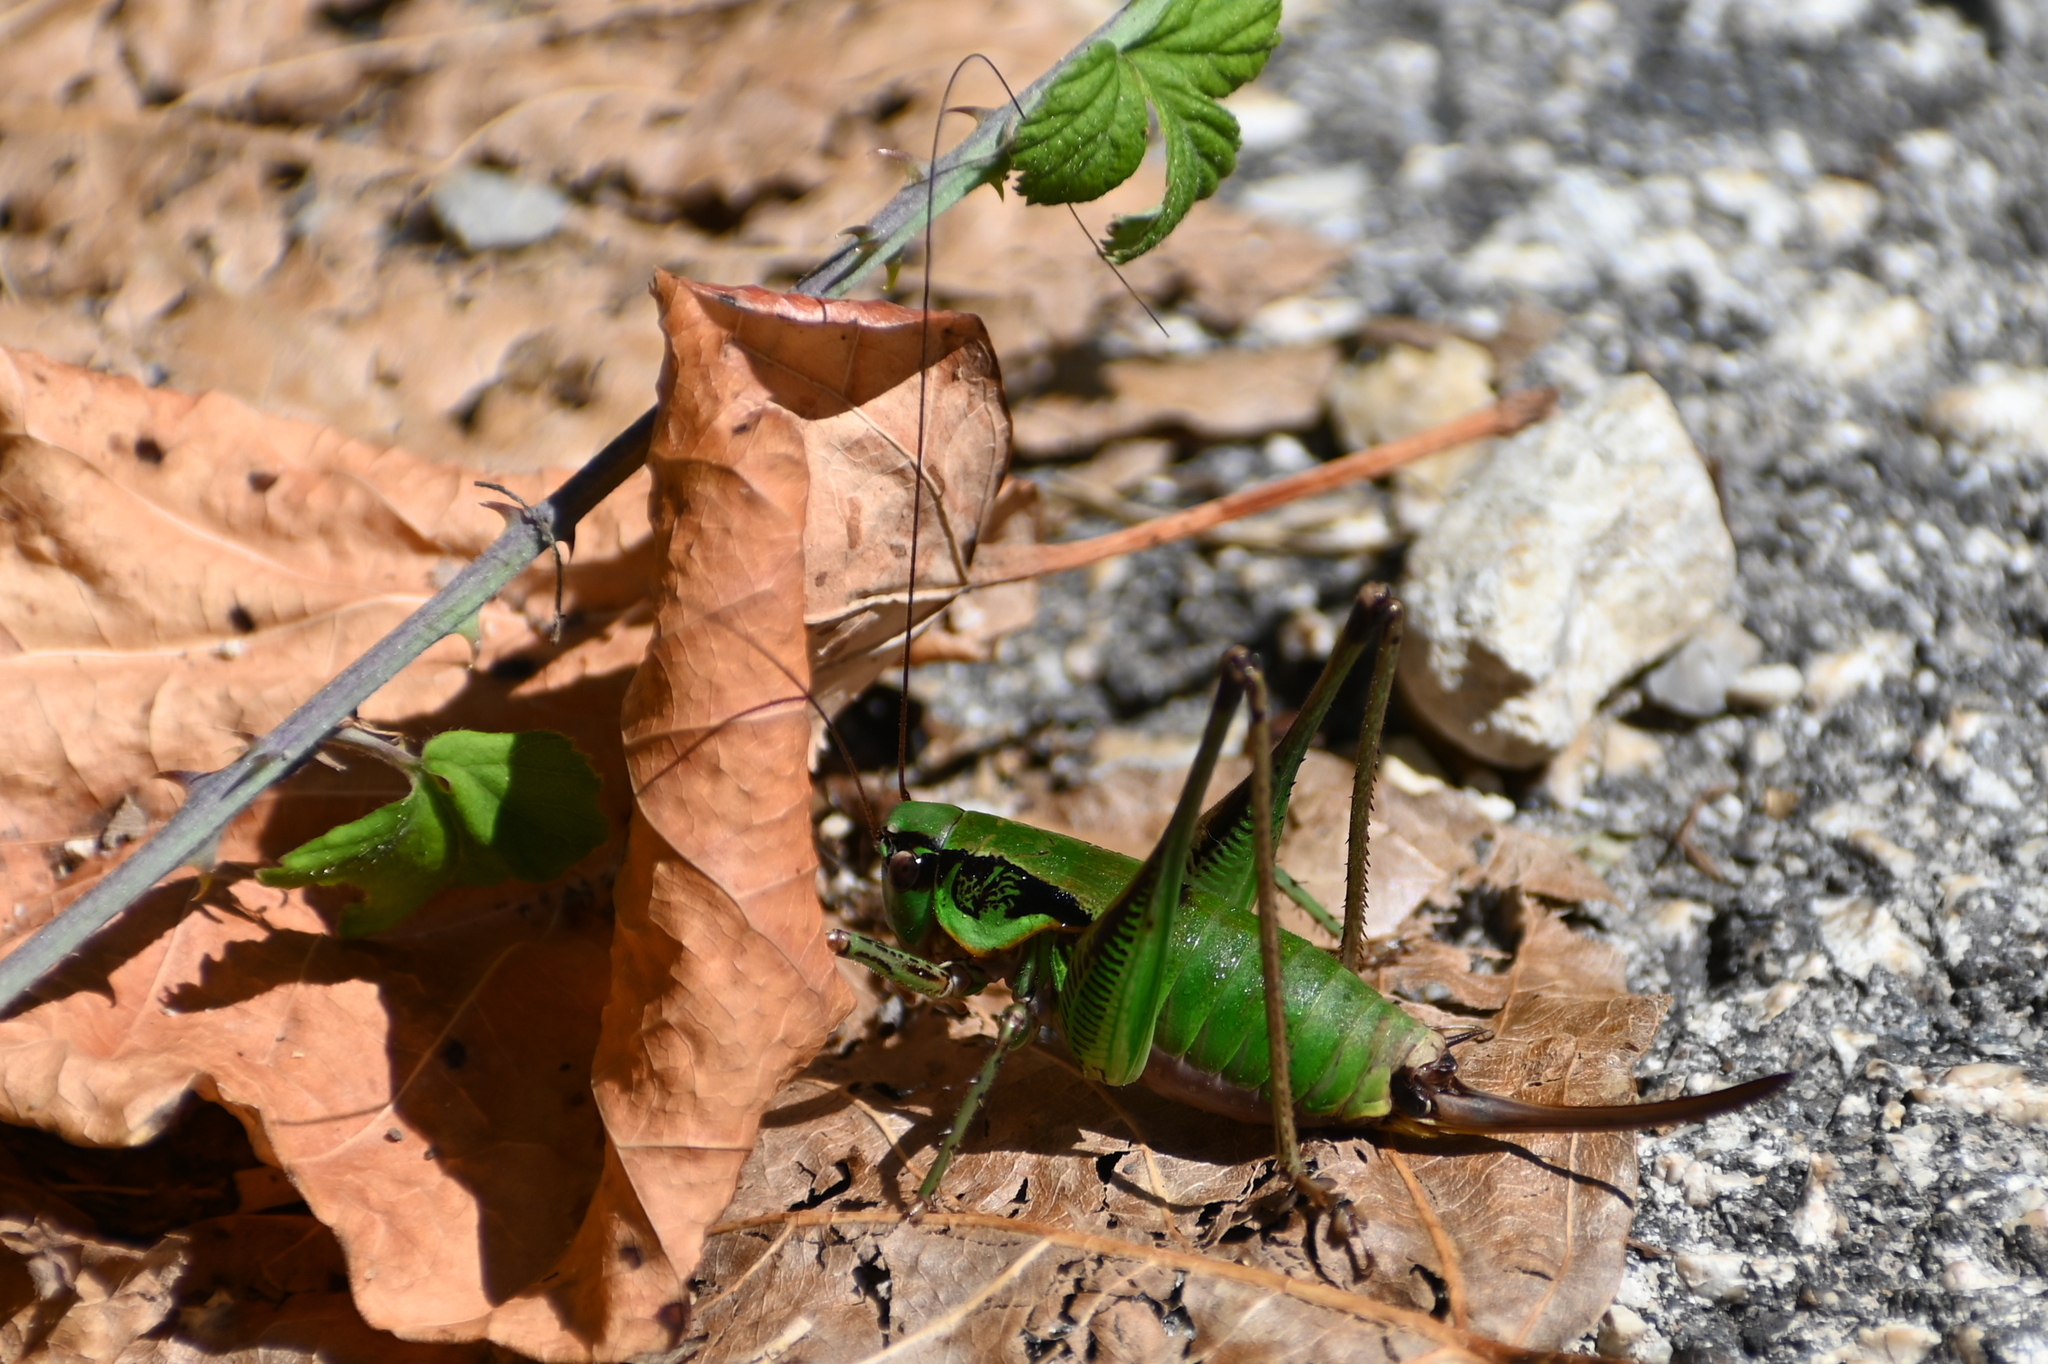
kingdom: Animalia
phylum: Arthropoda
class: Insecta
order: Orthoptera
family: Tettigoniidae
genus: Eupholidoptera
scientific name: Eupholidoptera garganica
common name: Gargano marbled bush-cricket
